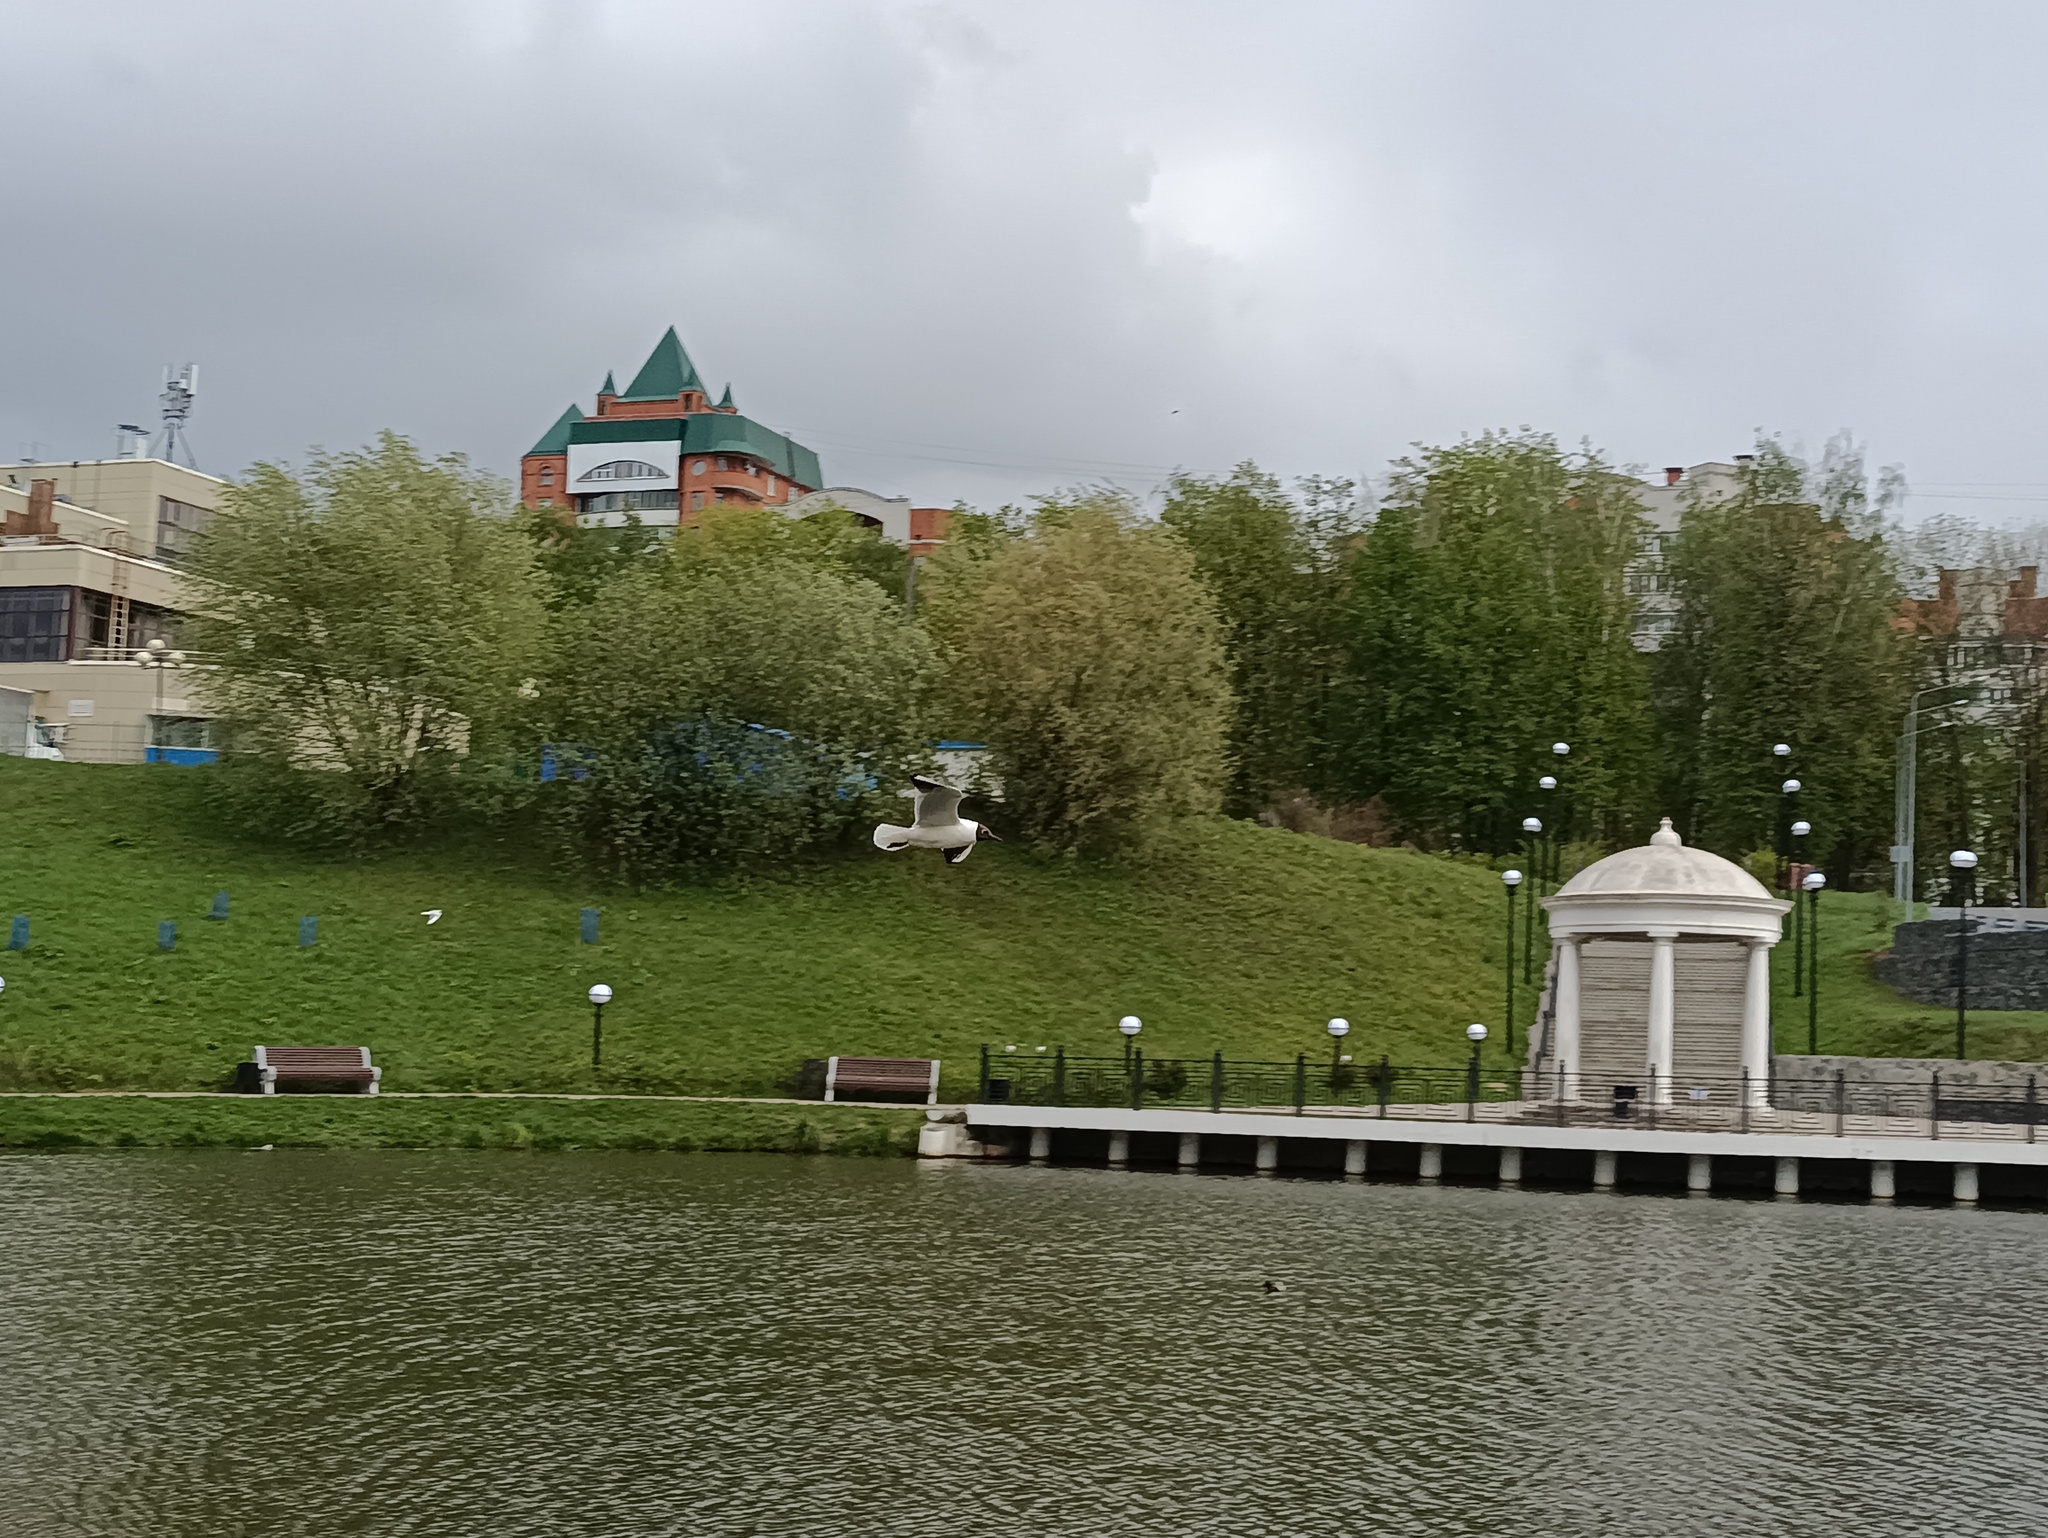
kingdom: Animalia
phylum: Chordata
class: Aves
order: Charadriiformes
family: Laridae
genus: Chroicocephalus
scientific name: Chroicocephalus ridibundus
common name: Black-headed gull
